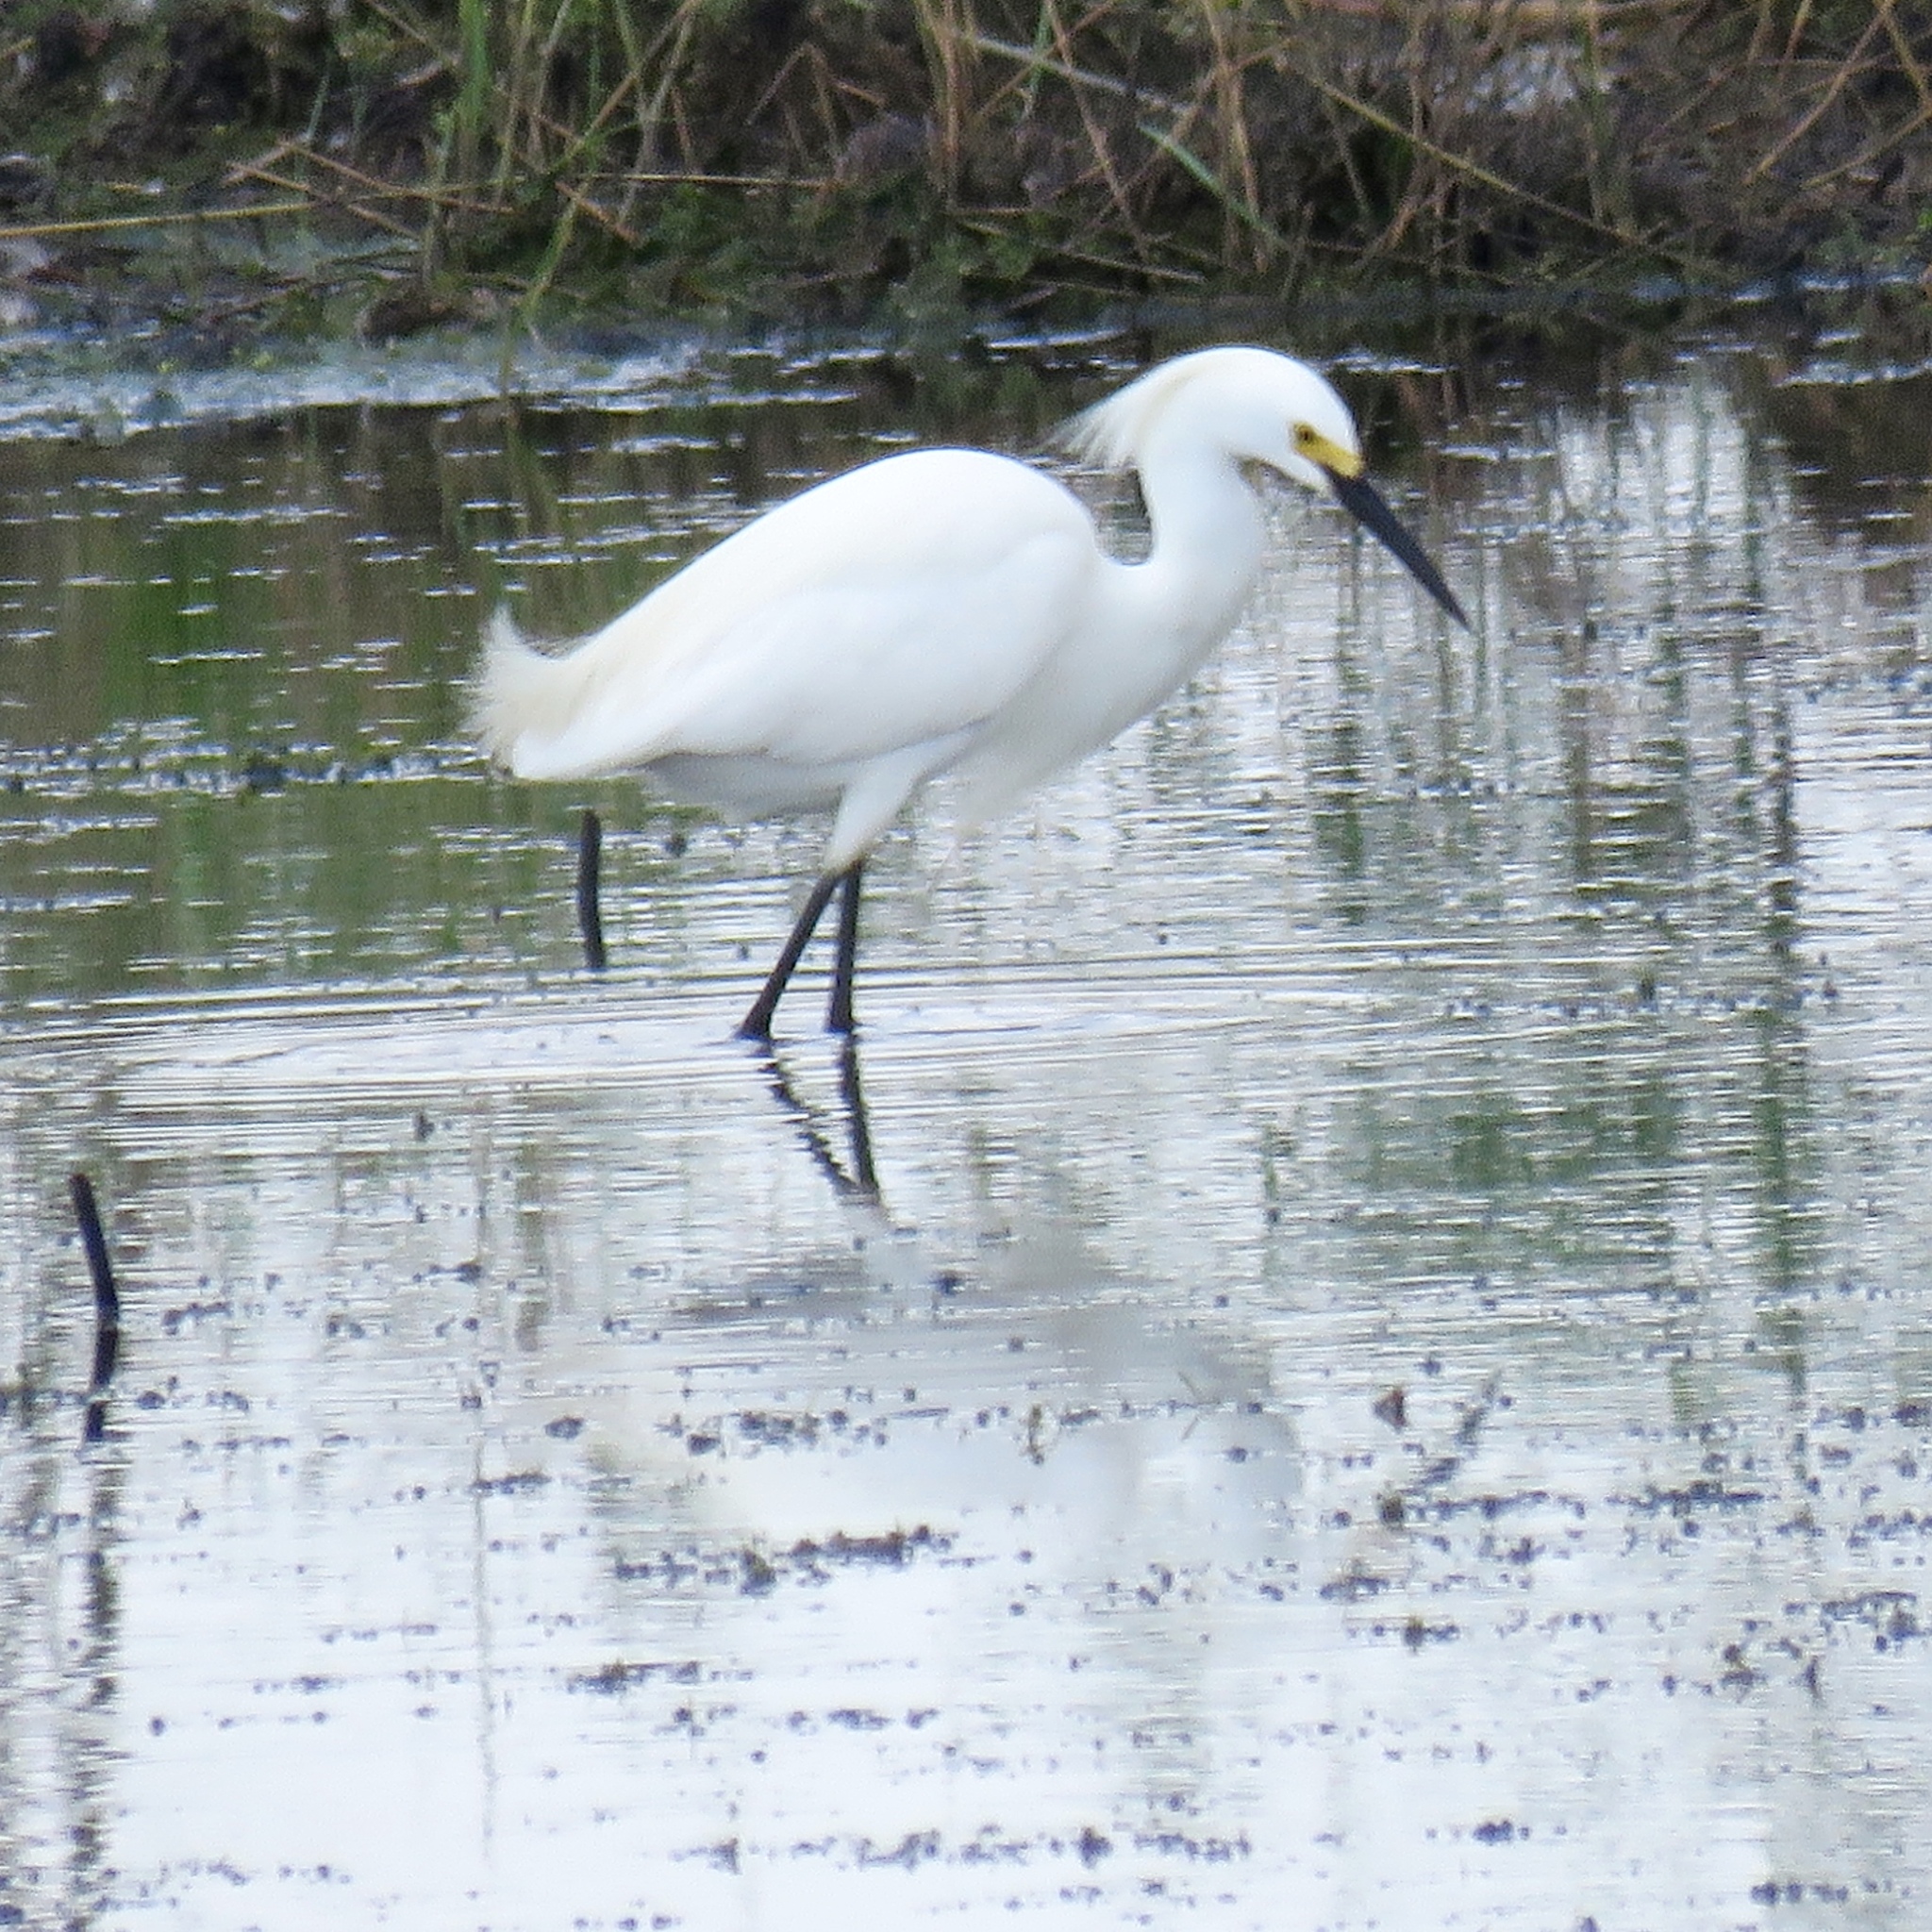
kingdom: Animalia
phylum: Chordata
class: Aves
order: Pelecaniformes
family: Ardeidae
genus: Egretta
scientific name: Egretta thula
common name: Snowy egret
